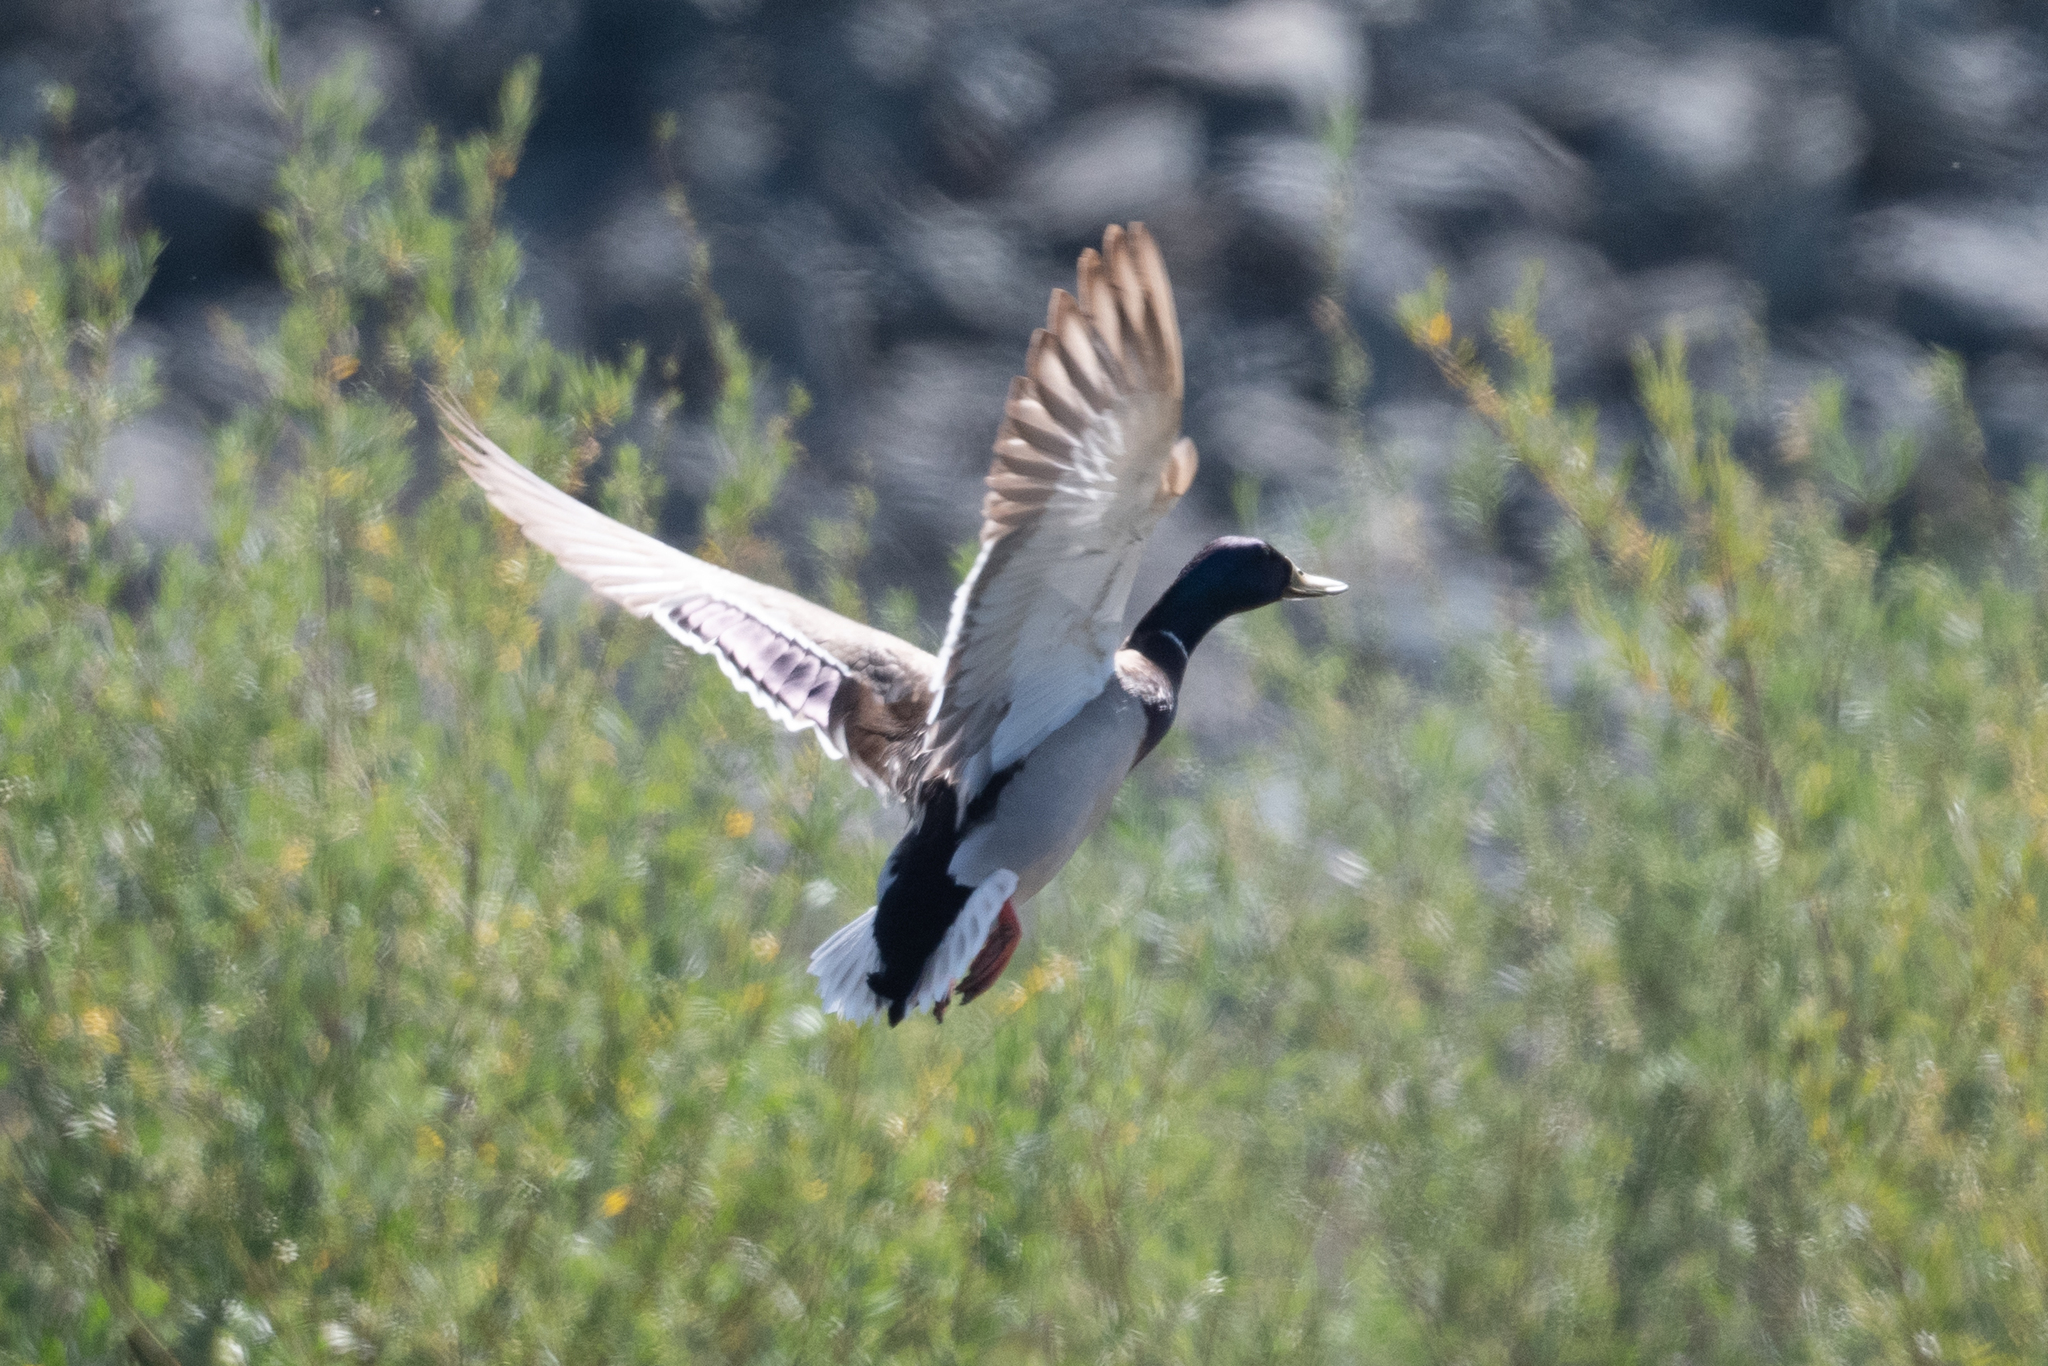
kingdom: Animalia
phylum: Chordata
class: Aves
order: Anseriformes
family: Anatidae
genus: Anas
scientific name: Anas platyrhynchos
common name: Mallard
